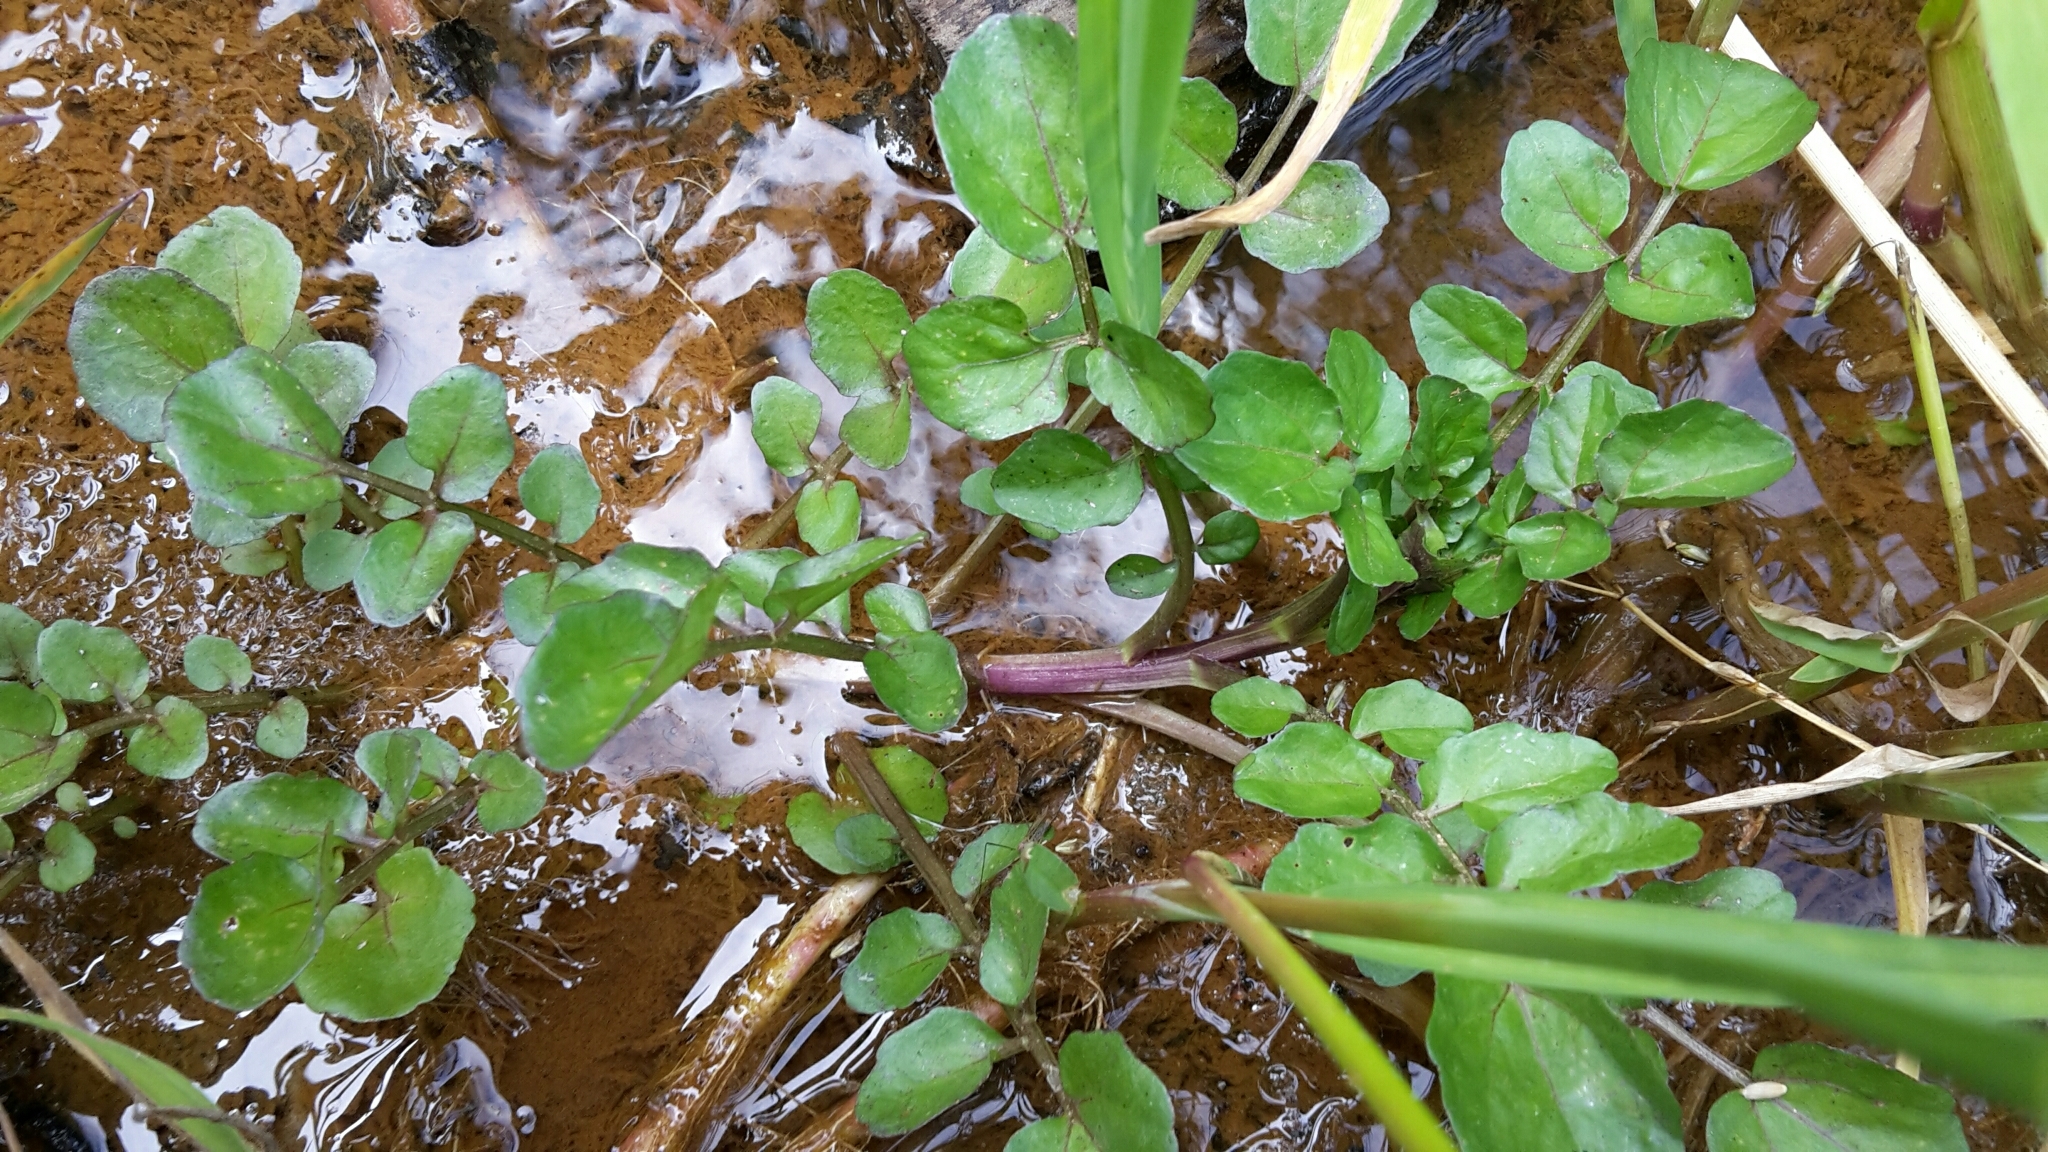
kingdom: Plantae
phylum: Tracheophyta
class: Magnoliopsida
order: Brassicales
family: Brassicaceae
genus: Nasturtium
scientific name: Nasturtium officinale
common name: Watercress
